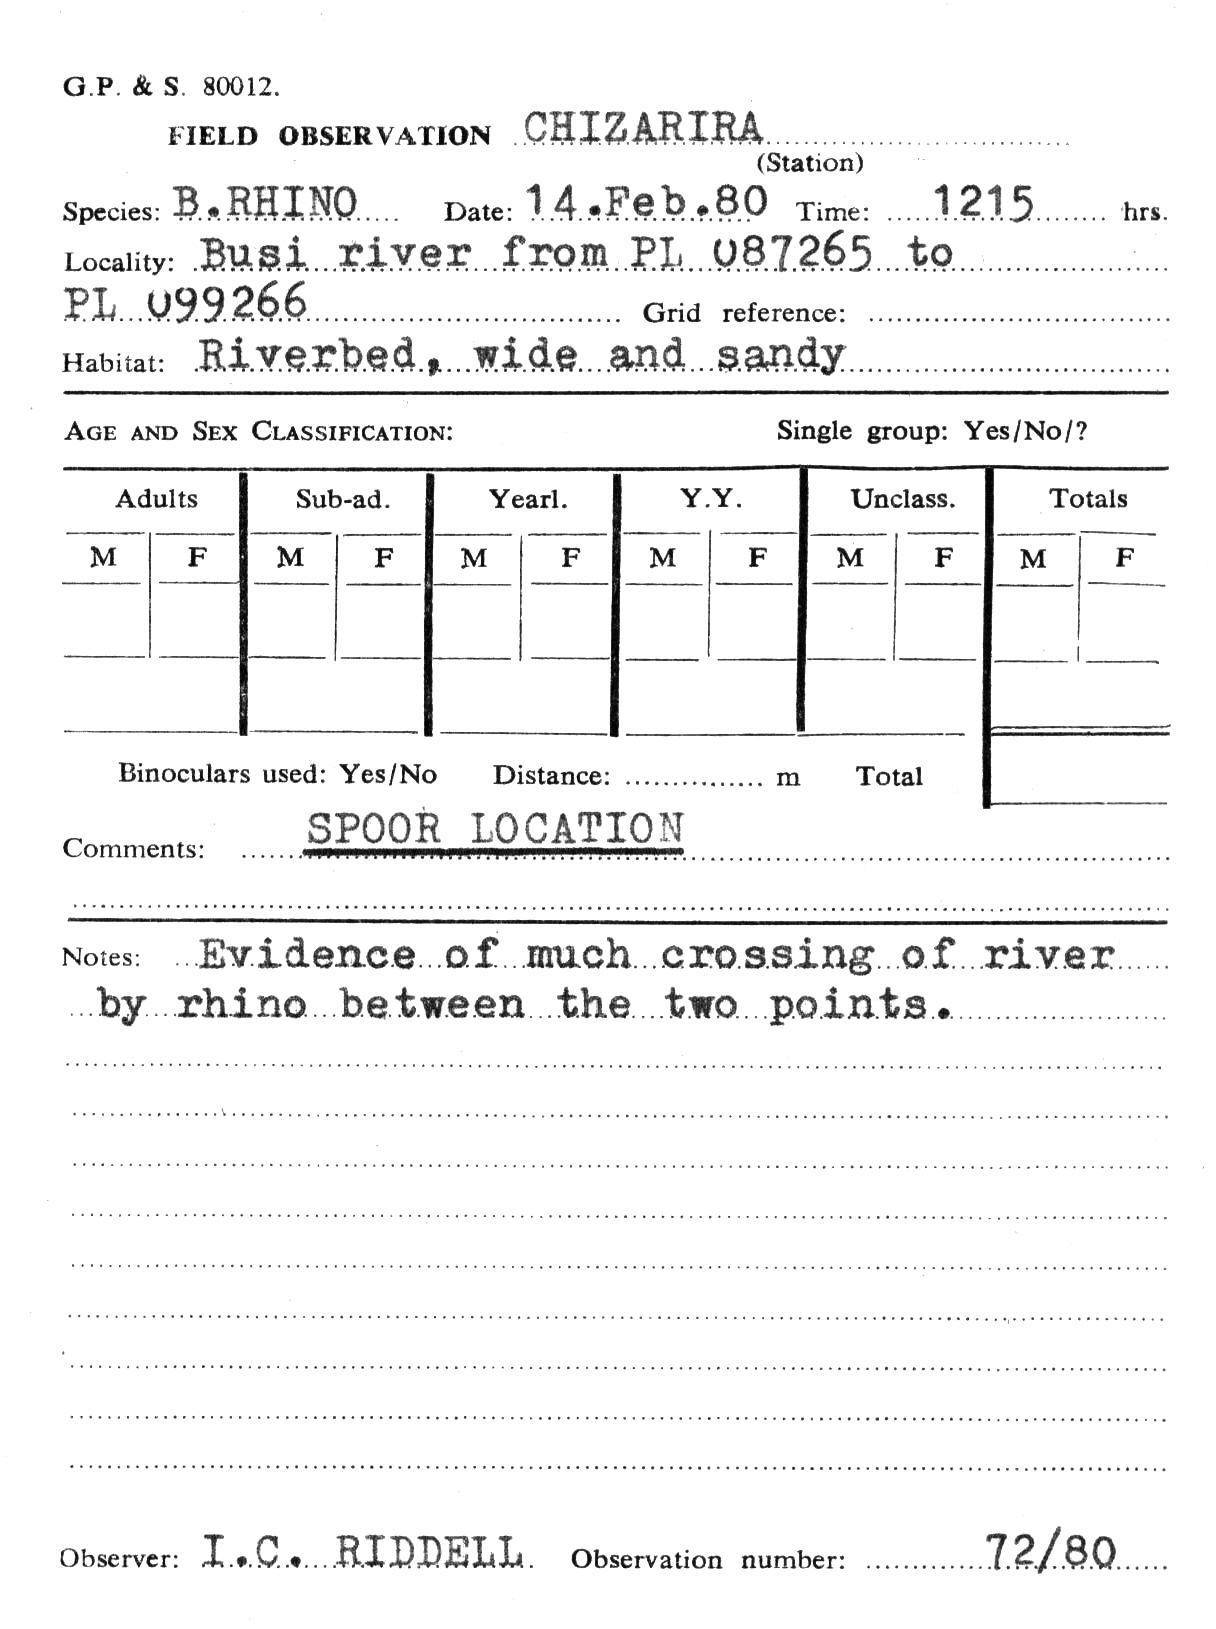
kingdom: Animalia
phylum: Chordata
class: Mammalia
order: Perissodactyla
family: Rhinocerotidae
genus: Diceros
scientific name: Diceros bicornis
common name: Black rhinoceros
